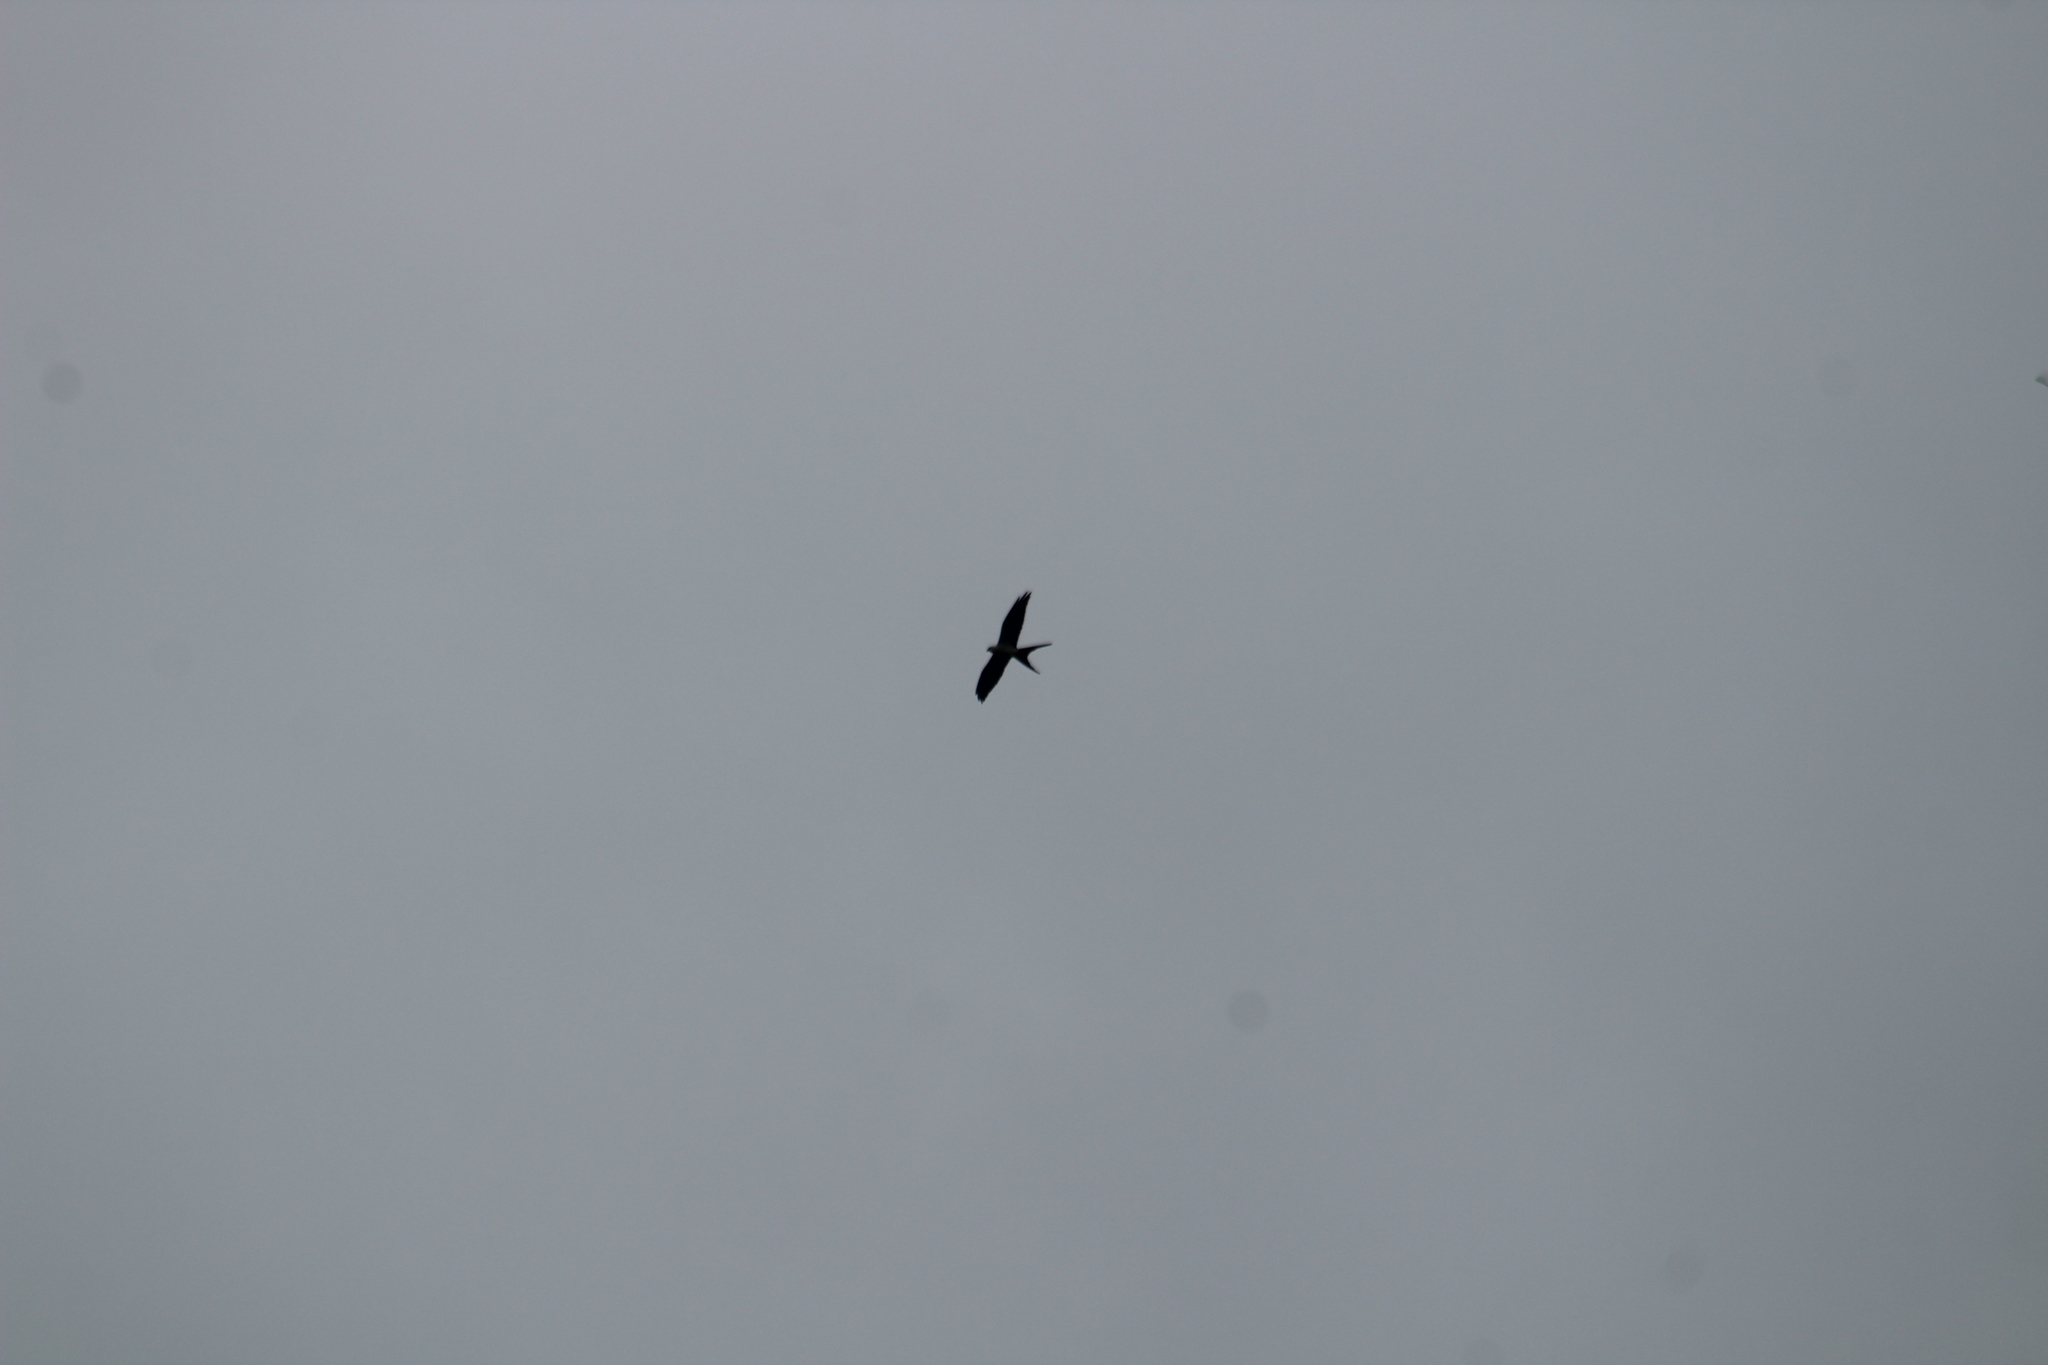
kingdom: Animalia
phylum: Chordata
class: Aves
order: Accipitriformes
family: Accipitridae
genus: Elanoides
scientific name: Elanoides forficatus
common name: Swallow-tailed kite
